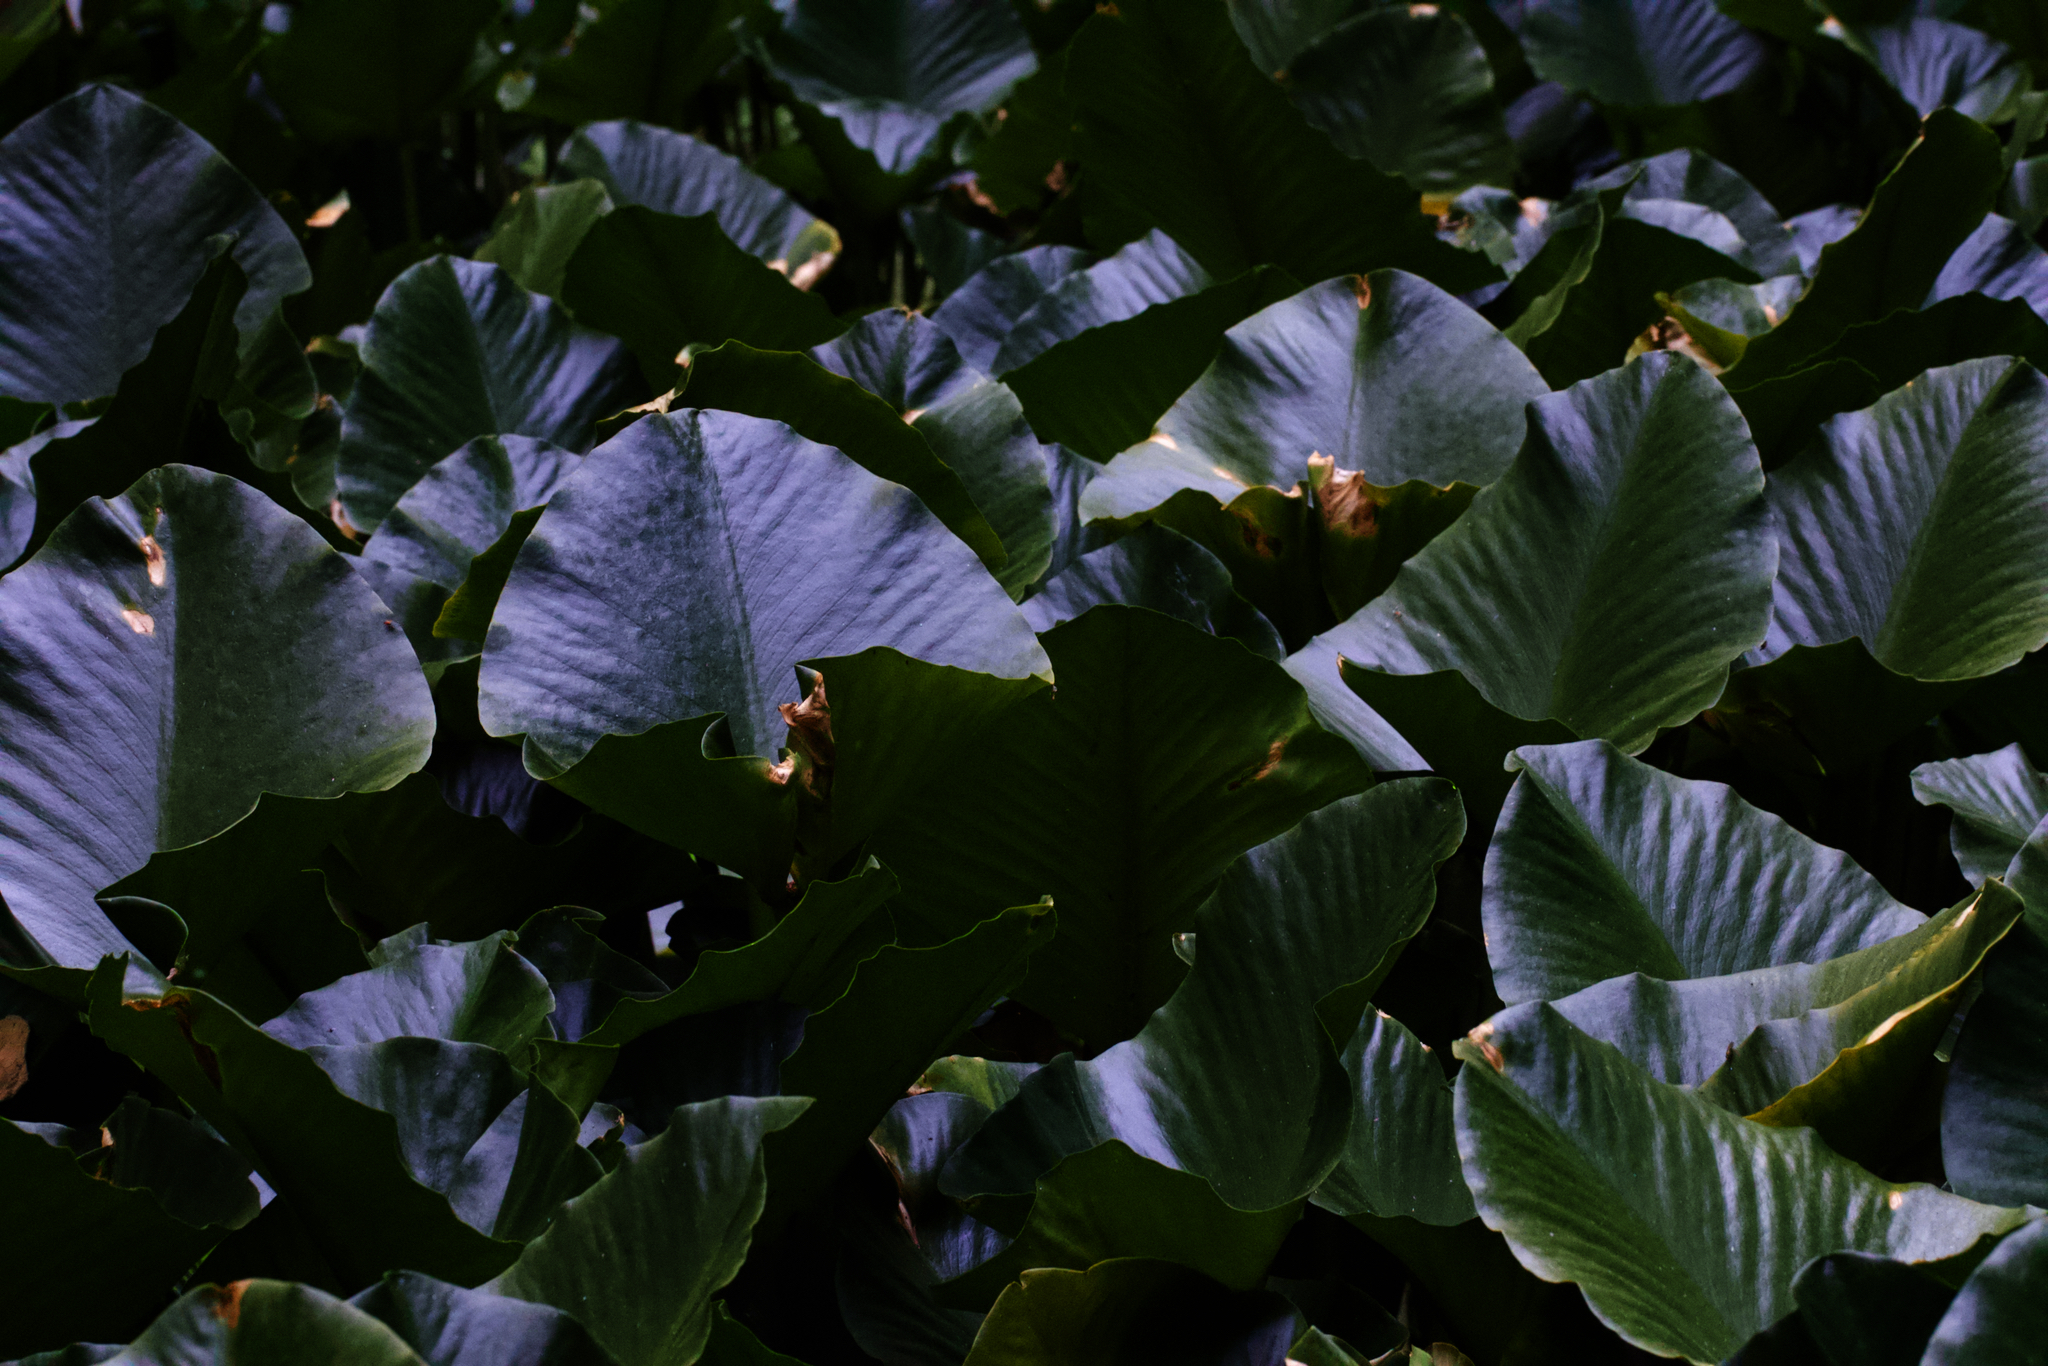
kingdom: Plantae
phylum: Tracheophyta
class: Magnoliopsida
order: Nymphaeales
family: Nymphaeaceae
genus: Nuphar
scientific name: Nuphar polysepala
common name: Rocky mountain cow-lily
